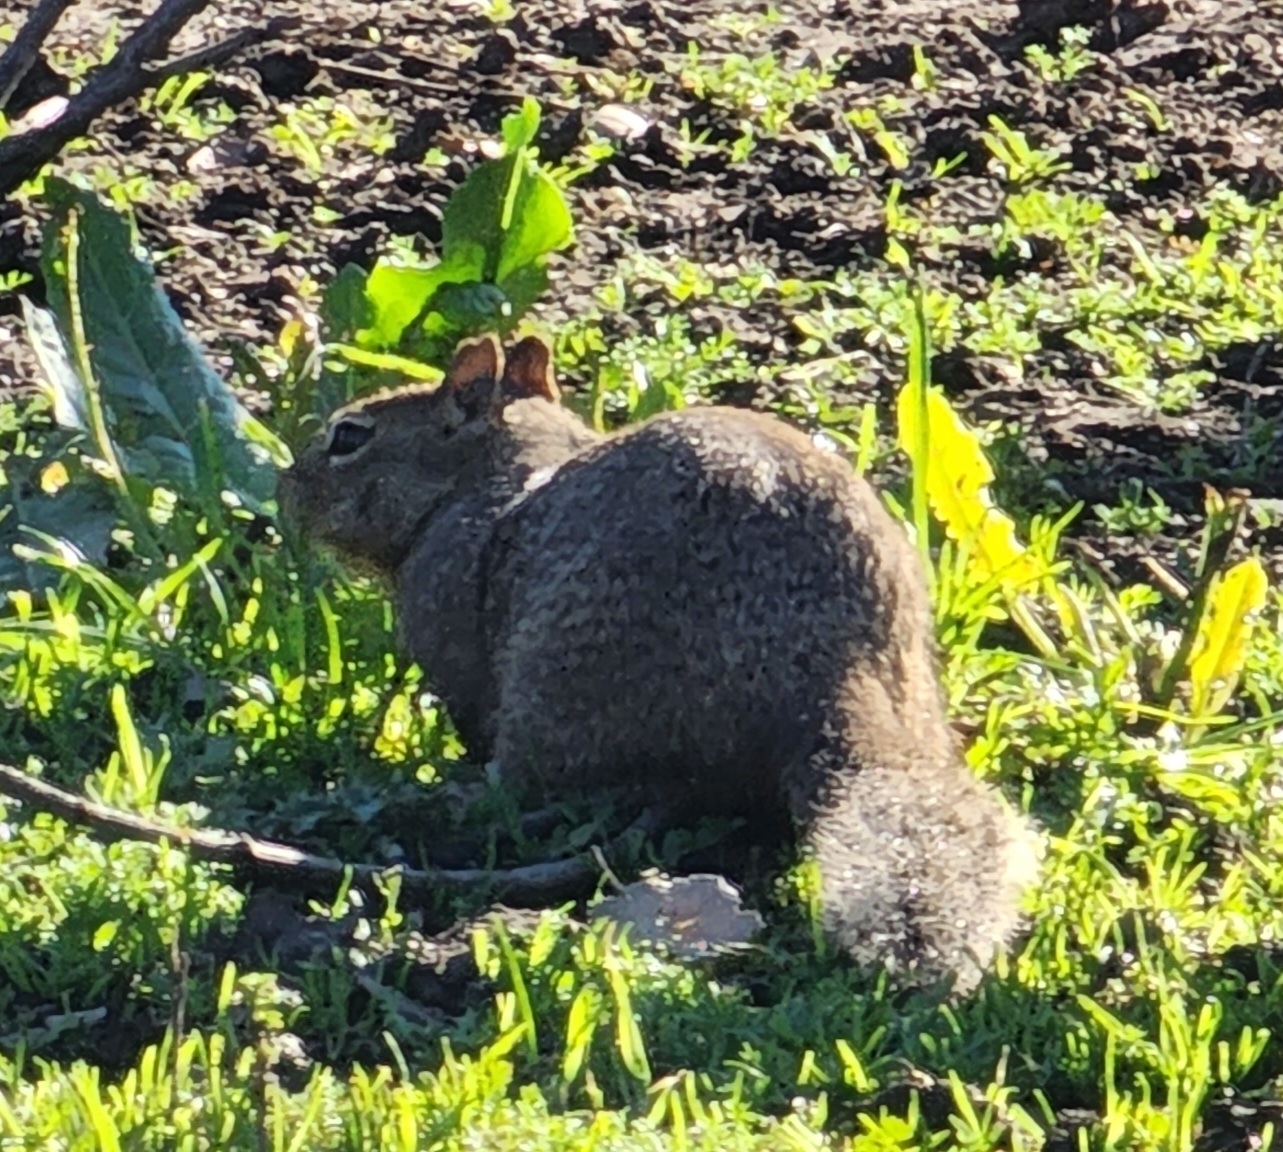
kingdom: Animalia
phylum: Chordata
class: Mammalia
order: Rodentia
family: Sciuridae
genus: Otospermophilus
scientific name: Otospermophilus beecheyi
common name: California ground squirrel
